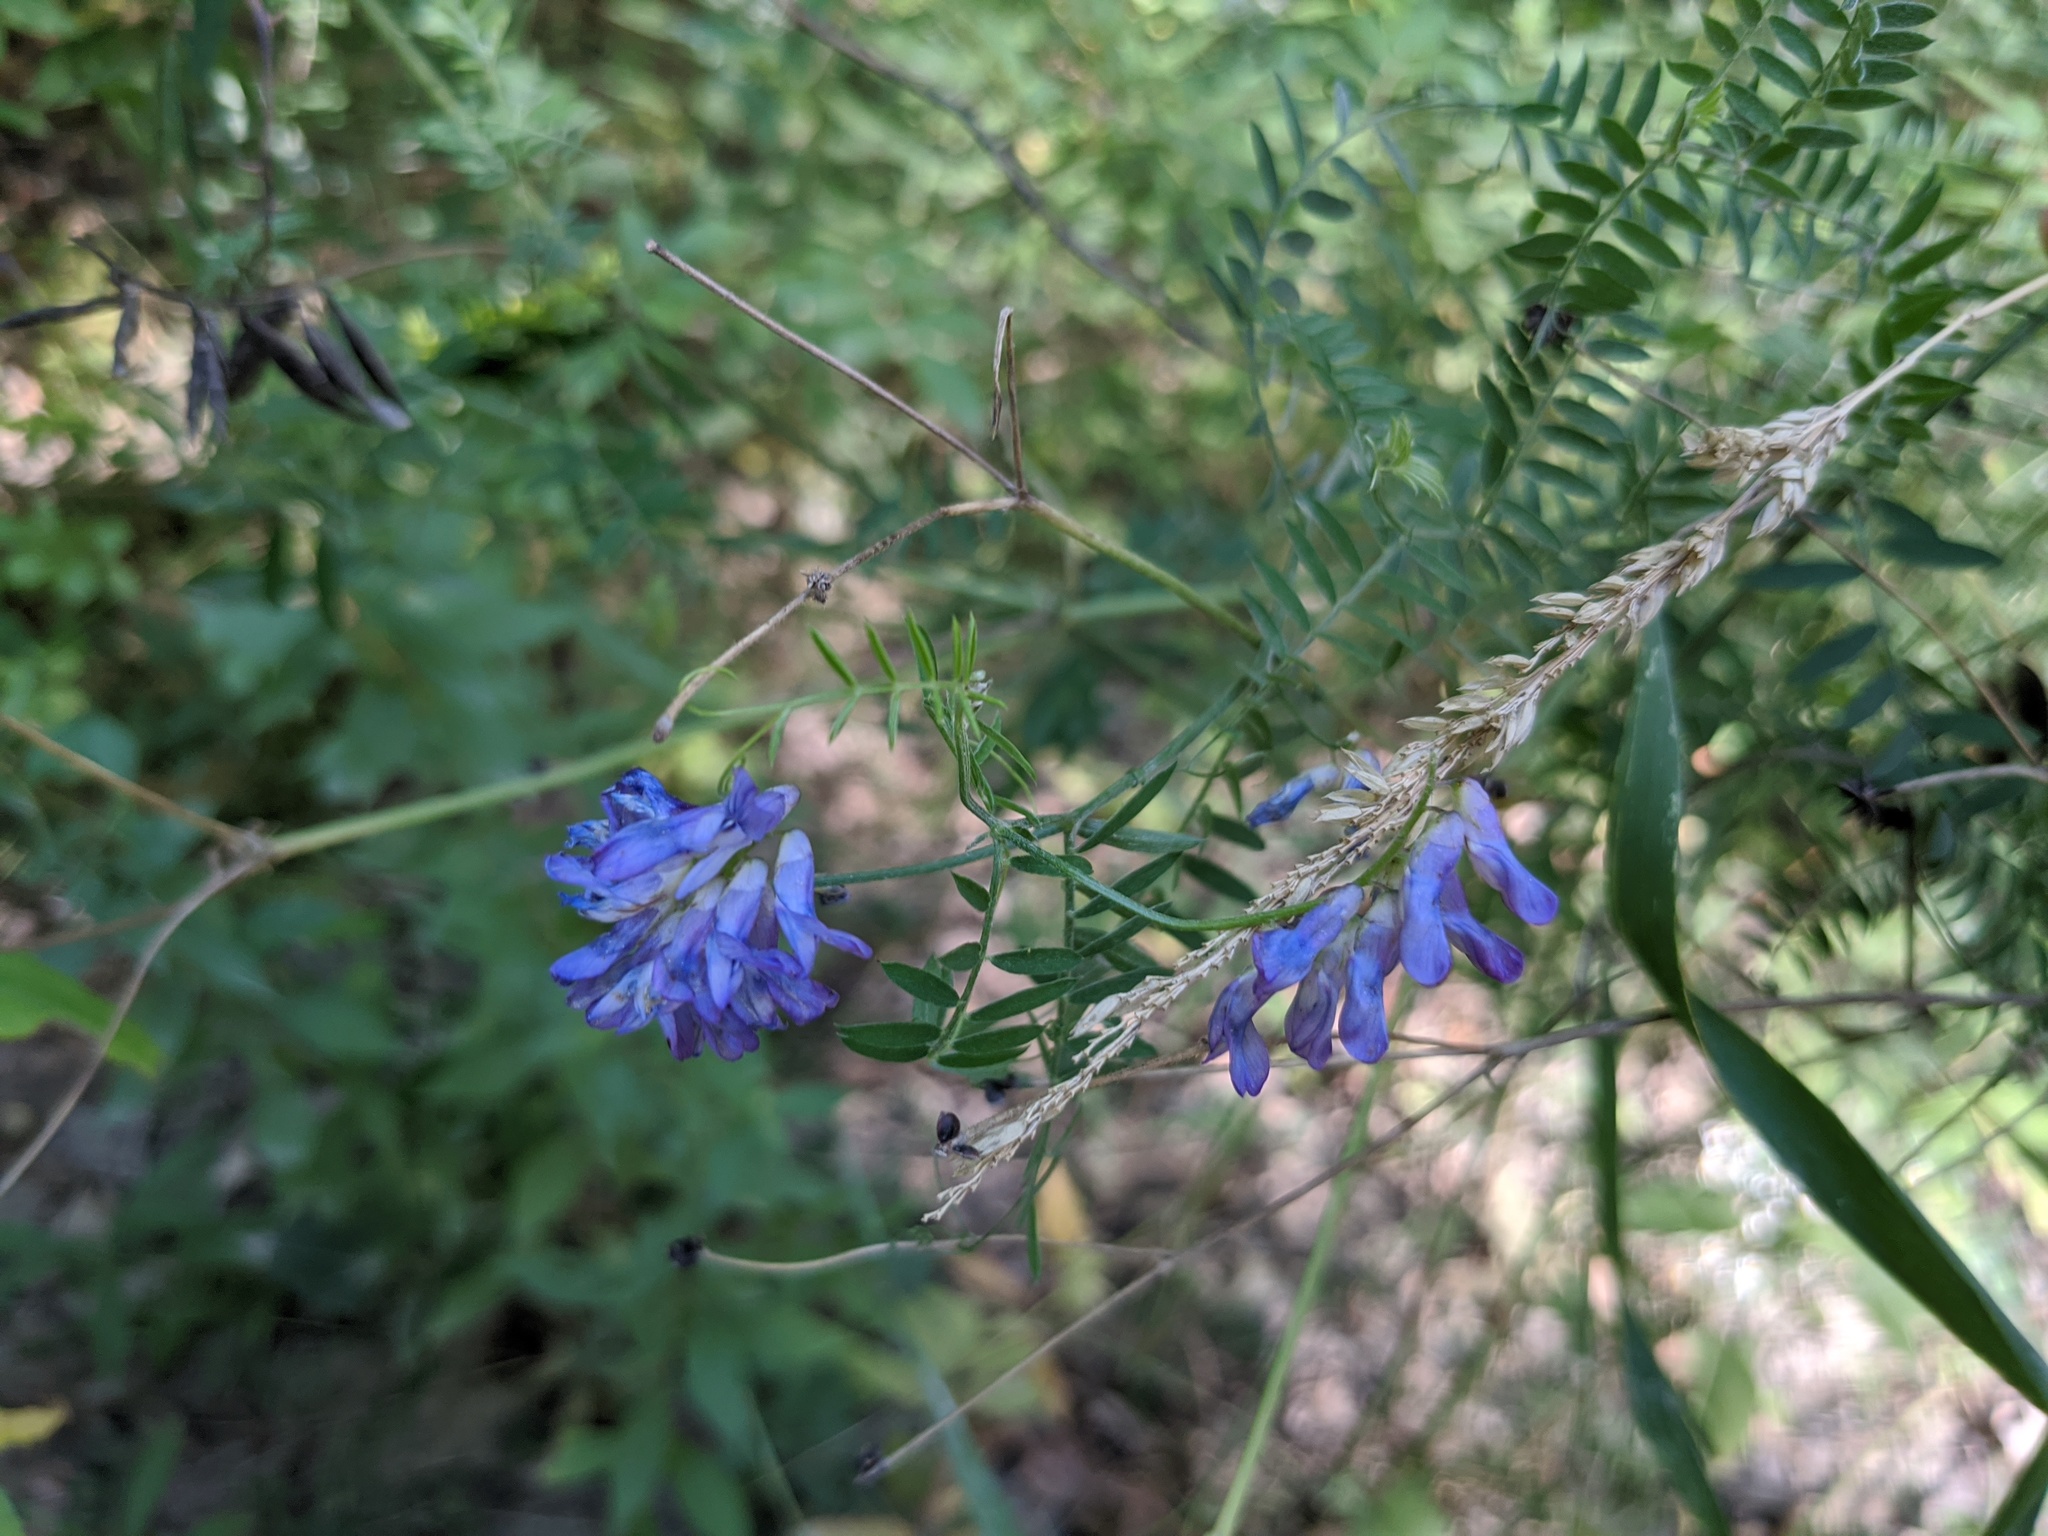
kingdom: Plantae
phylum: Tracheophyta
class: Magnoliopsida
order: Fabales
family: Fabaceae
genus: Vicia
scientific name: Vicia cracca
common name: Bird vetch
